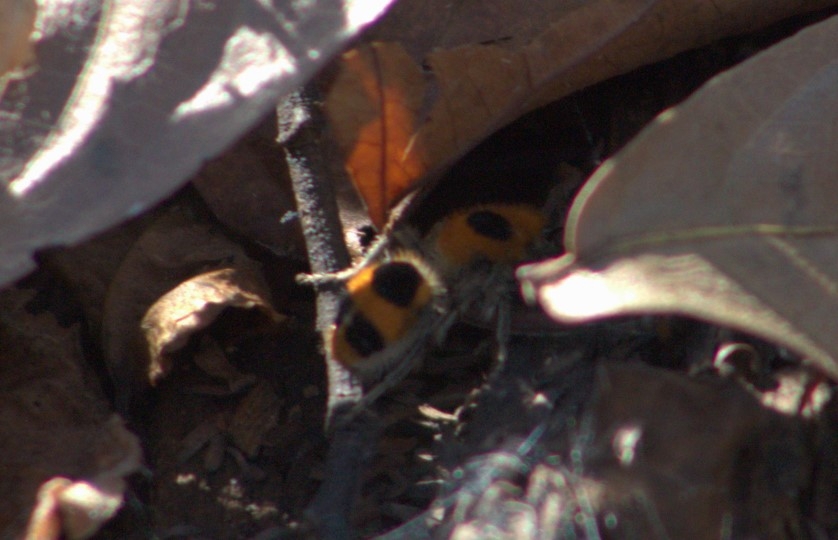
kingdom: Animalia
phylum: Arthropoda
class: Insecta
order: Hymenoptera
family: Mutillidae
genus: Dasymutilla
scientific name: Dasymutilla
